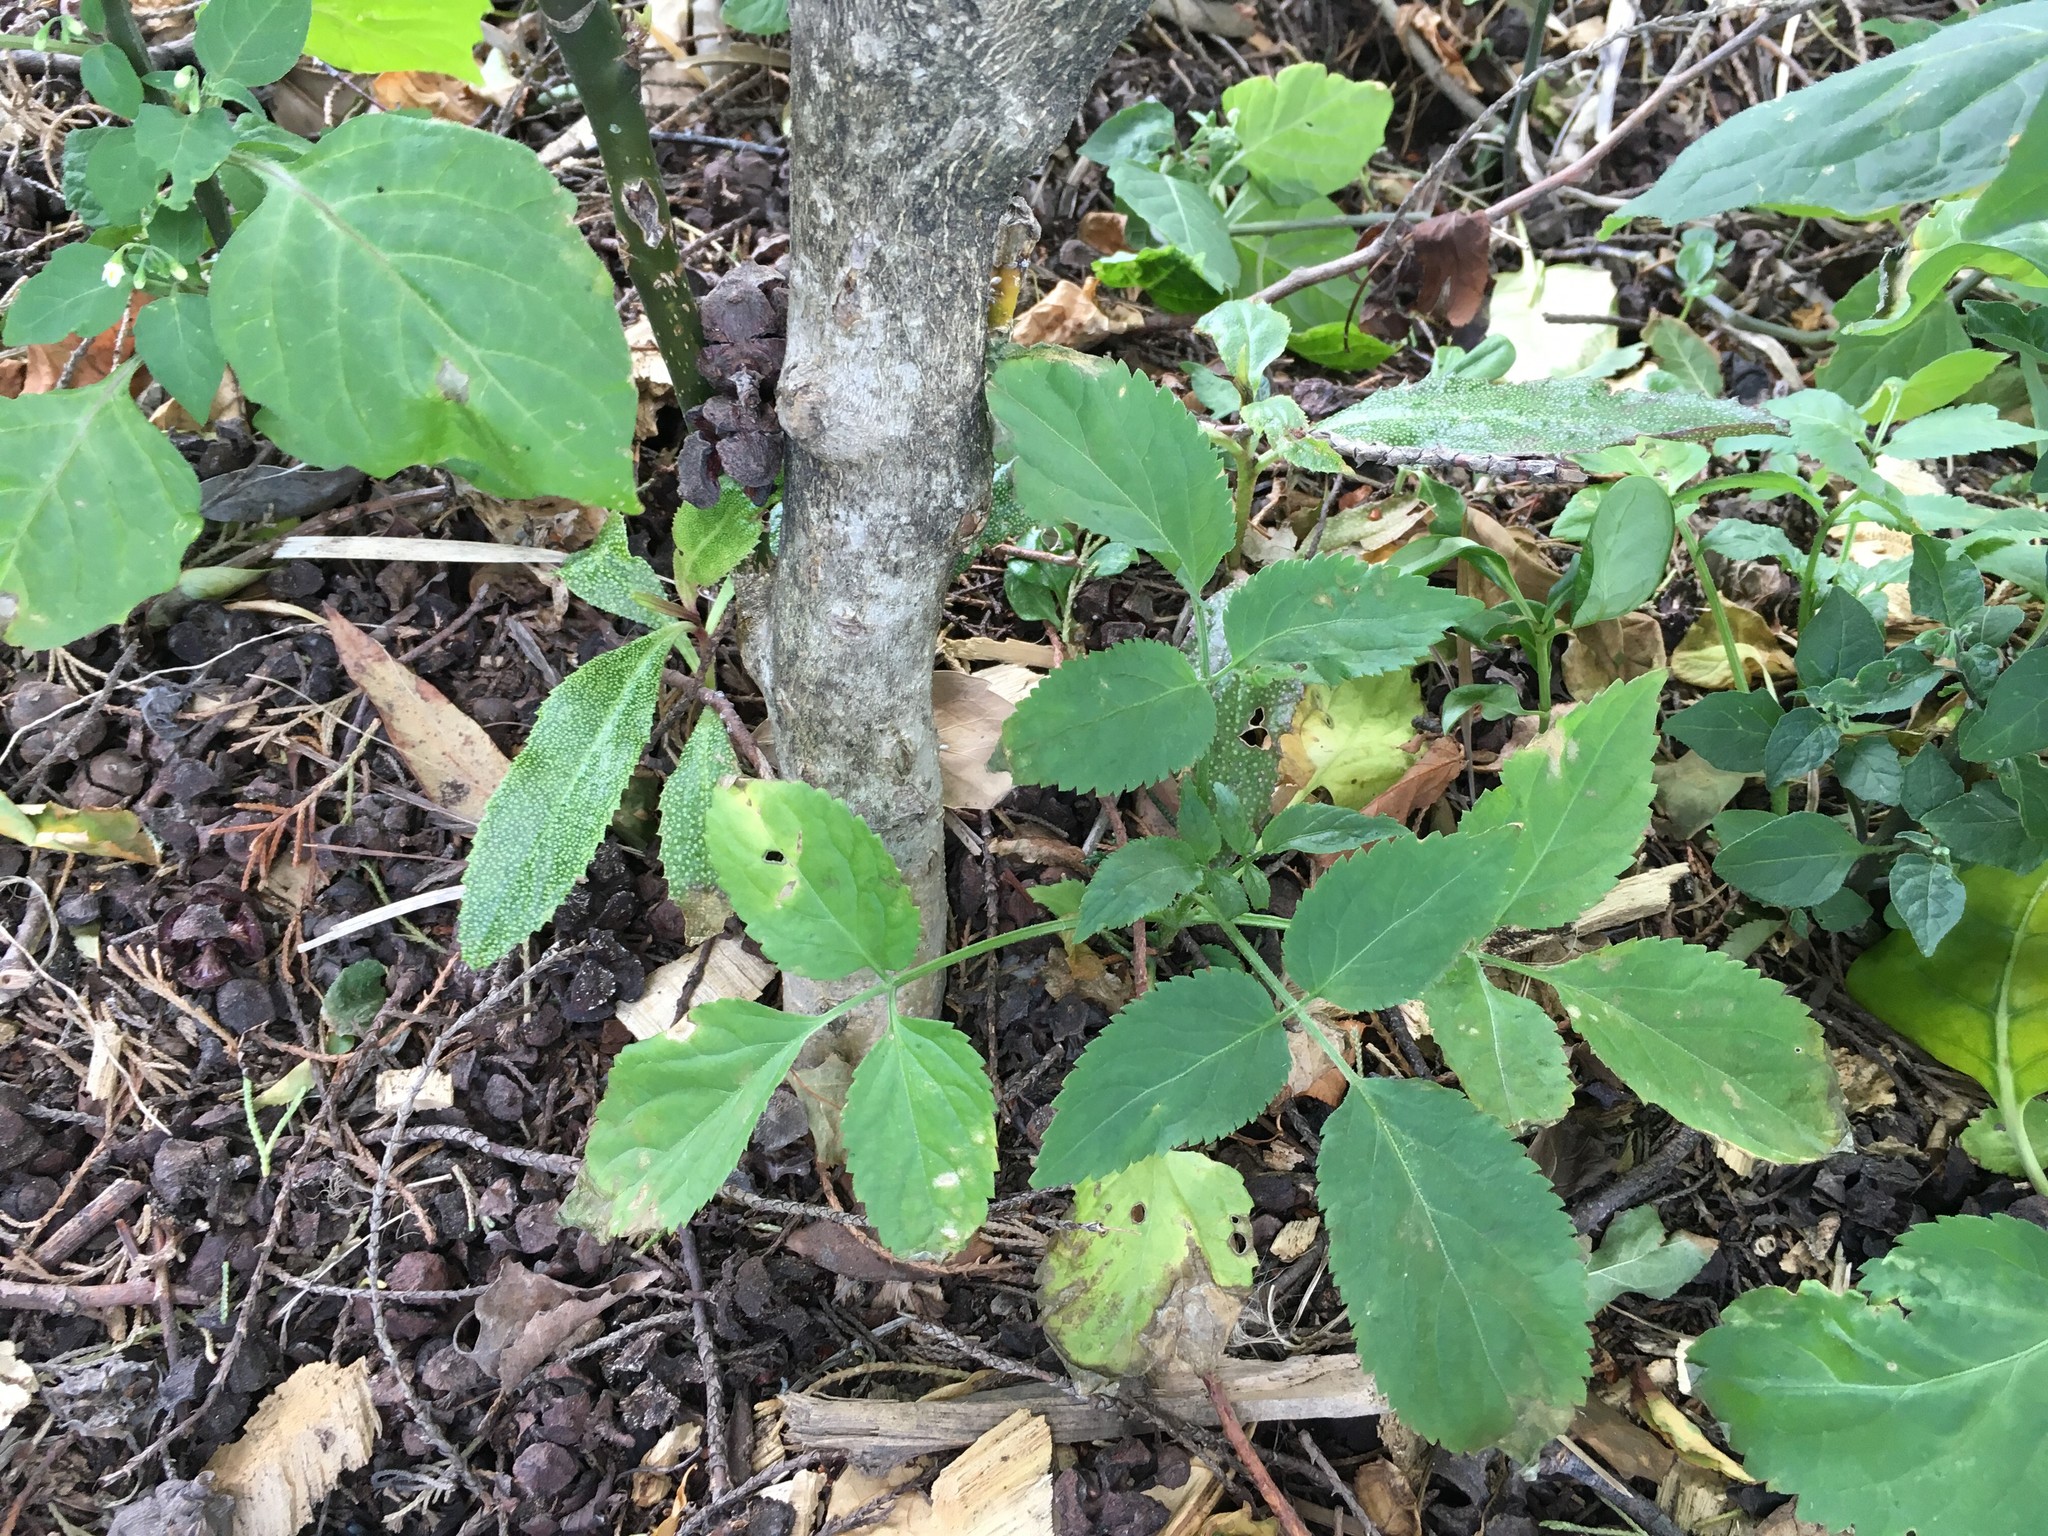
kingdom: Plantae
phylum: Tracheophyta
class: Magnoliopsida
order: Dipsacales
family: Viburnaceae
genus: Sambucus
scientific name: Sambucus nigra
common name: Elder
